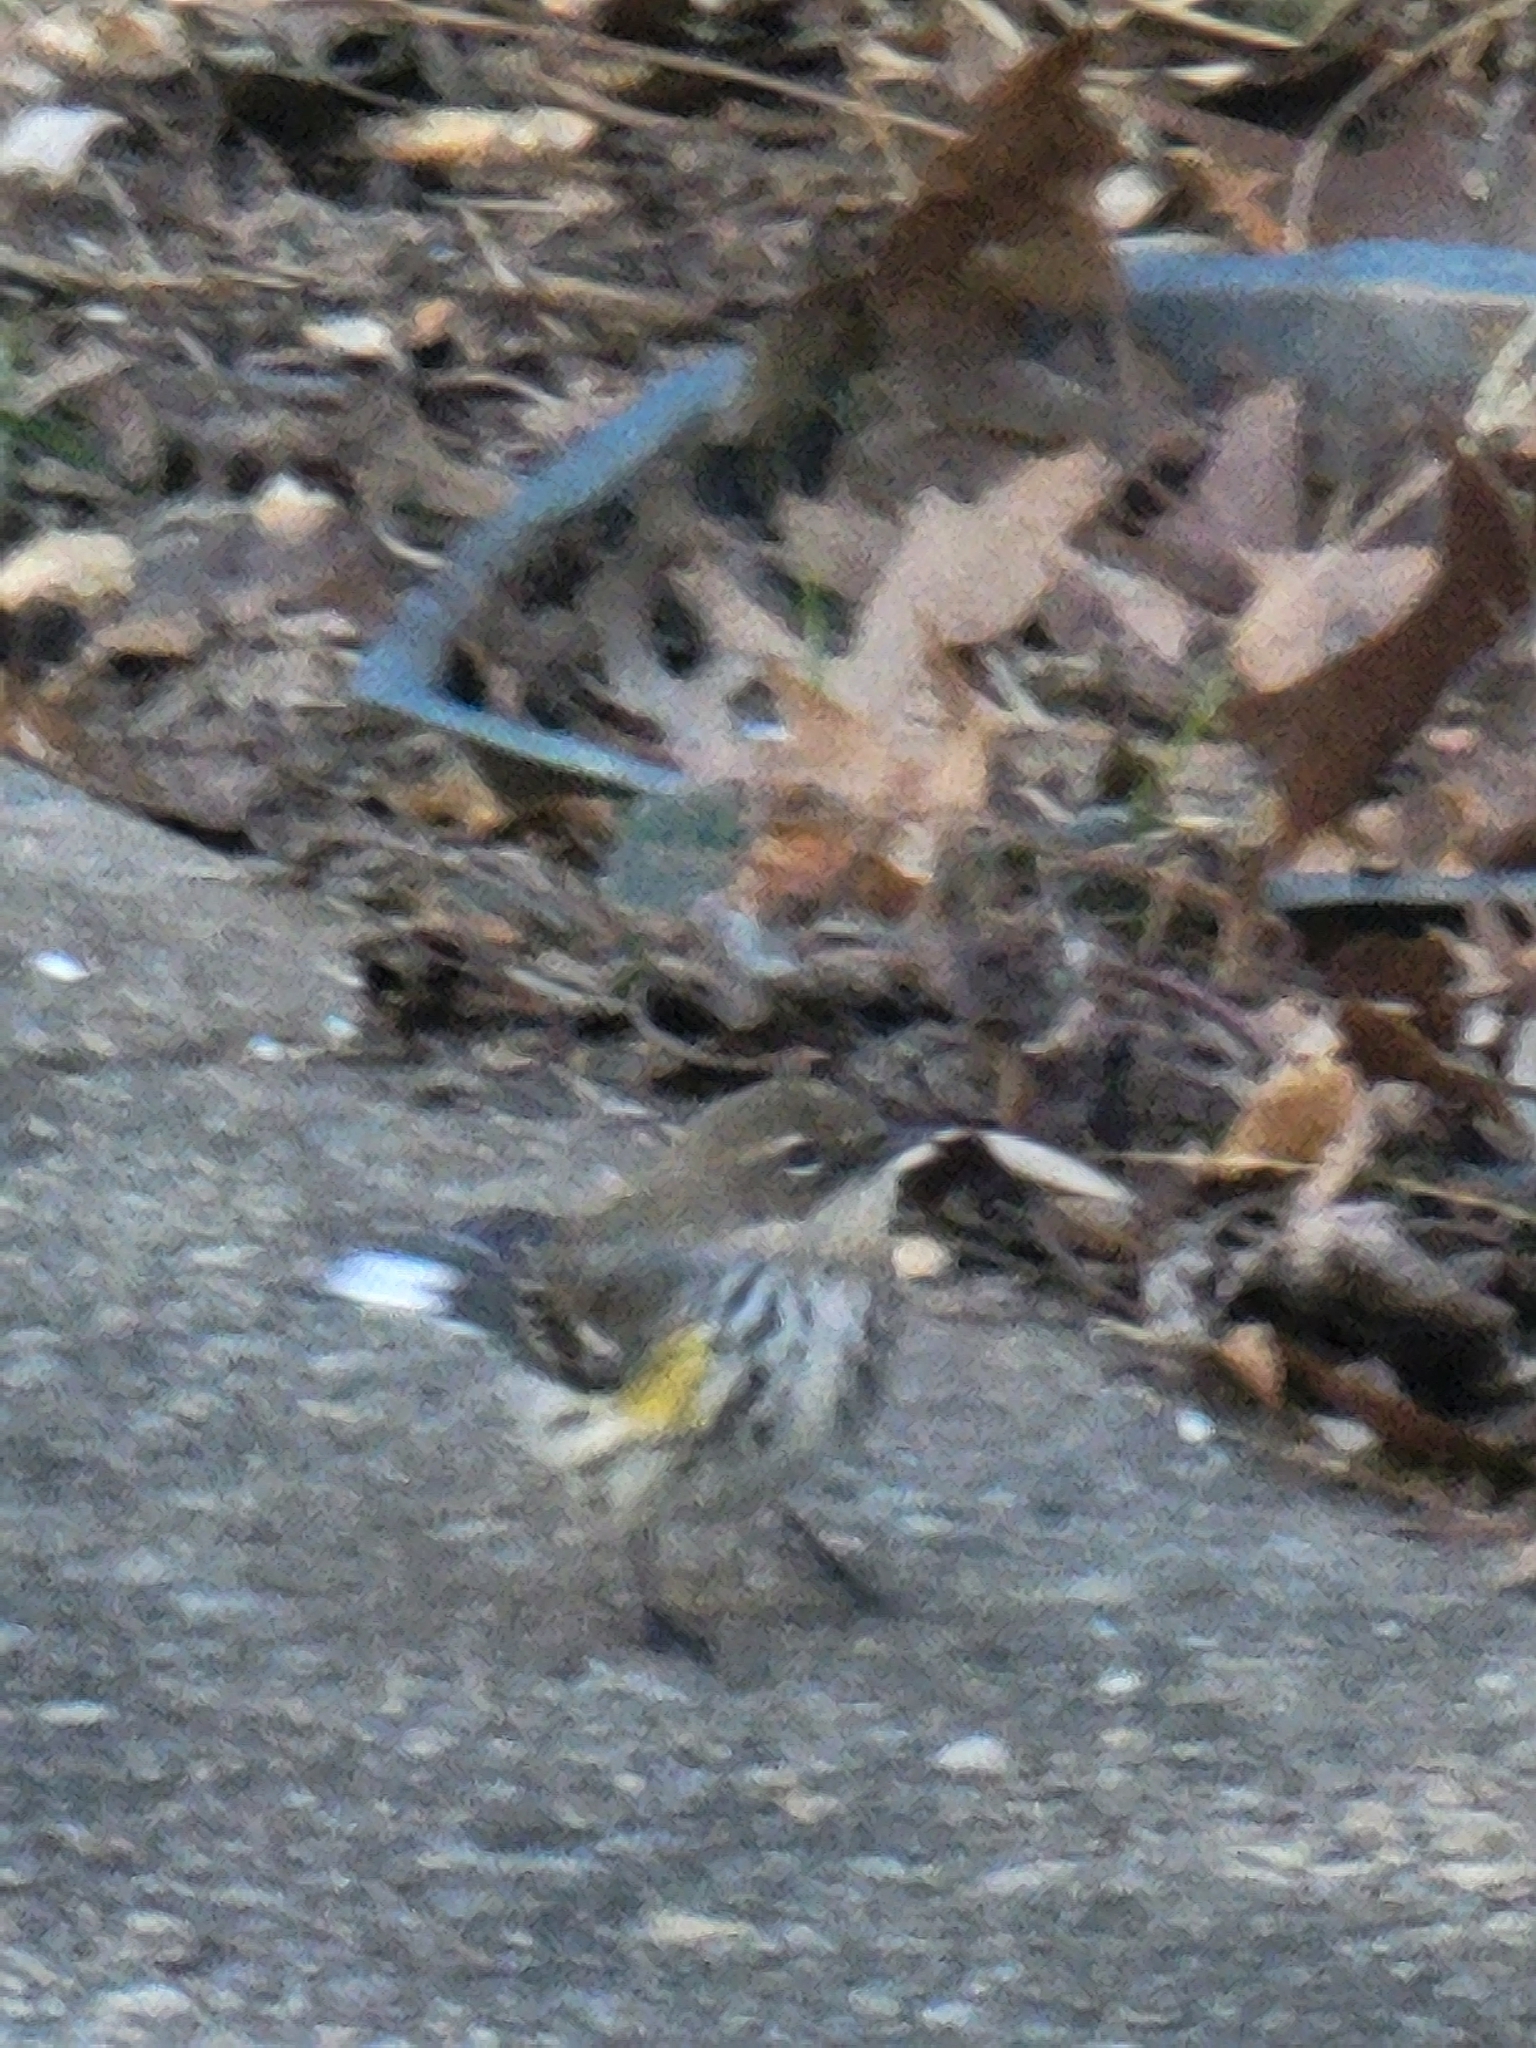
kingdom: Animalia
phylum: Chordata
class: Aves
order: Passeriformes
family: Parulidae
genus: Setophaga
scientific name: Setophaga coronata
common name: Myrtle warbler
